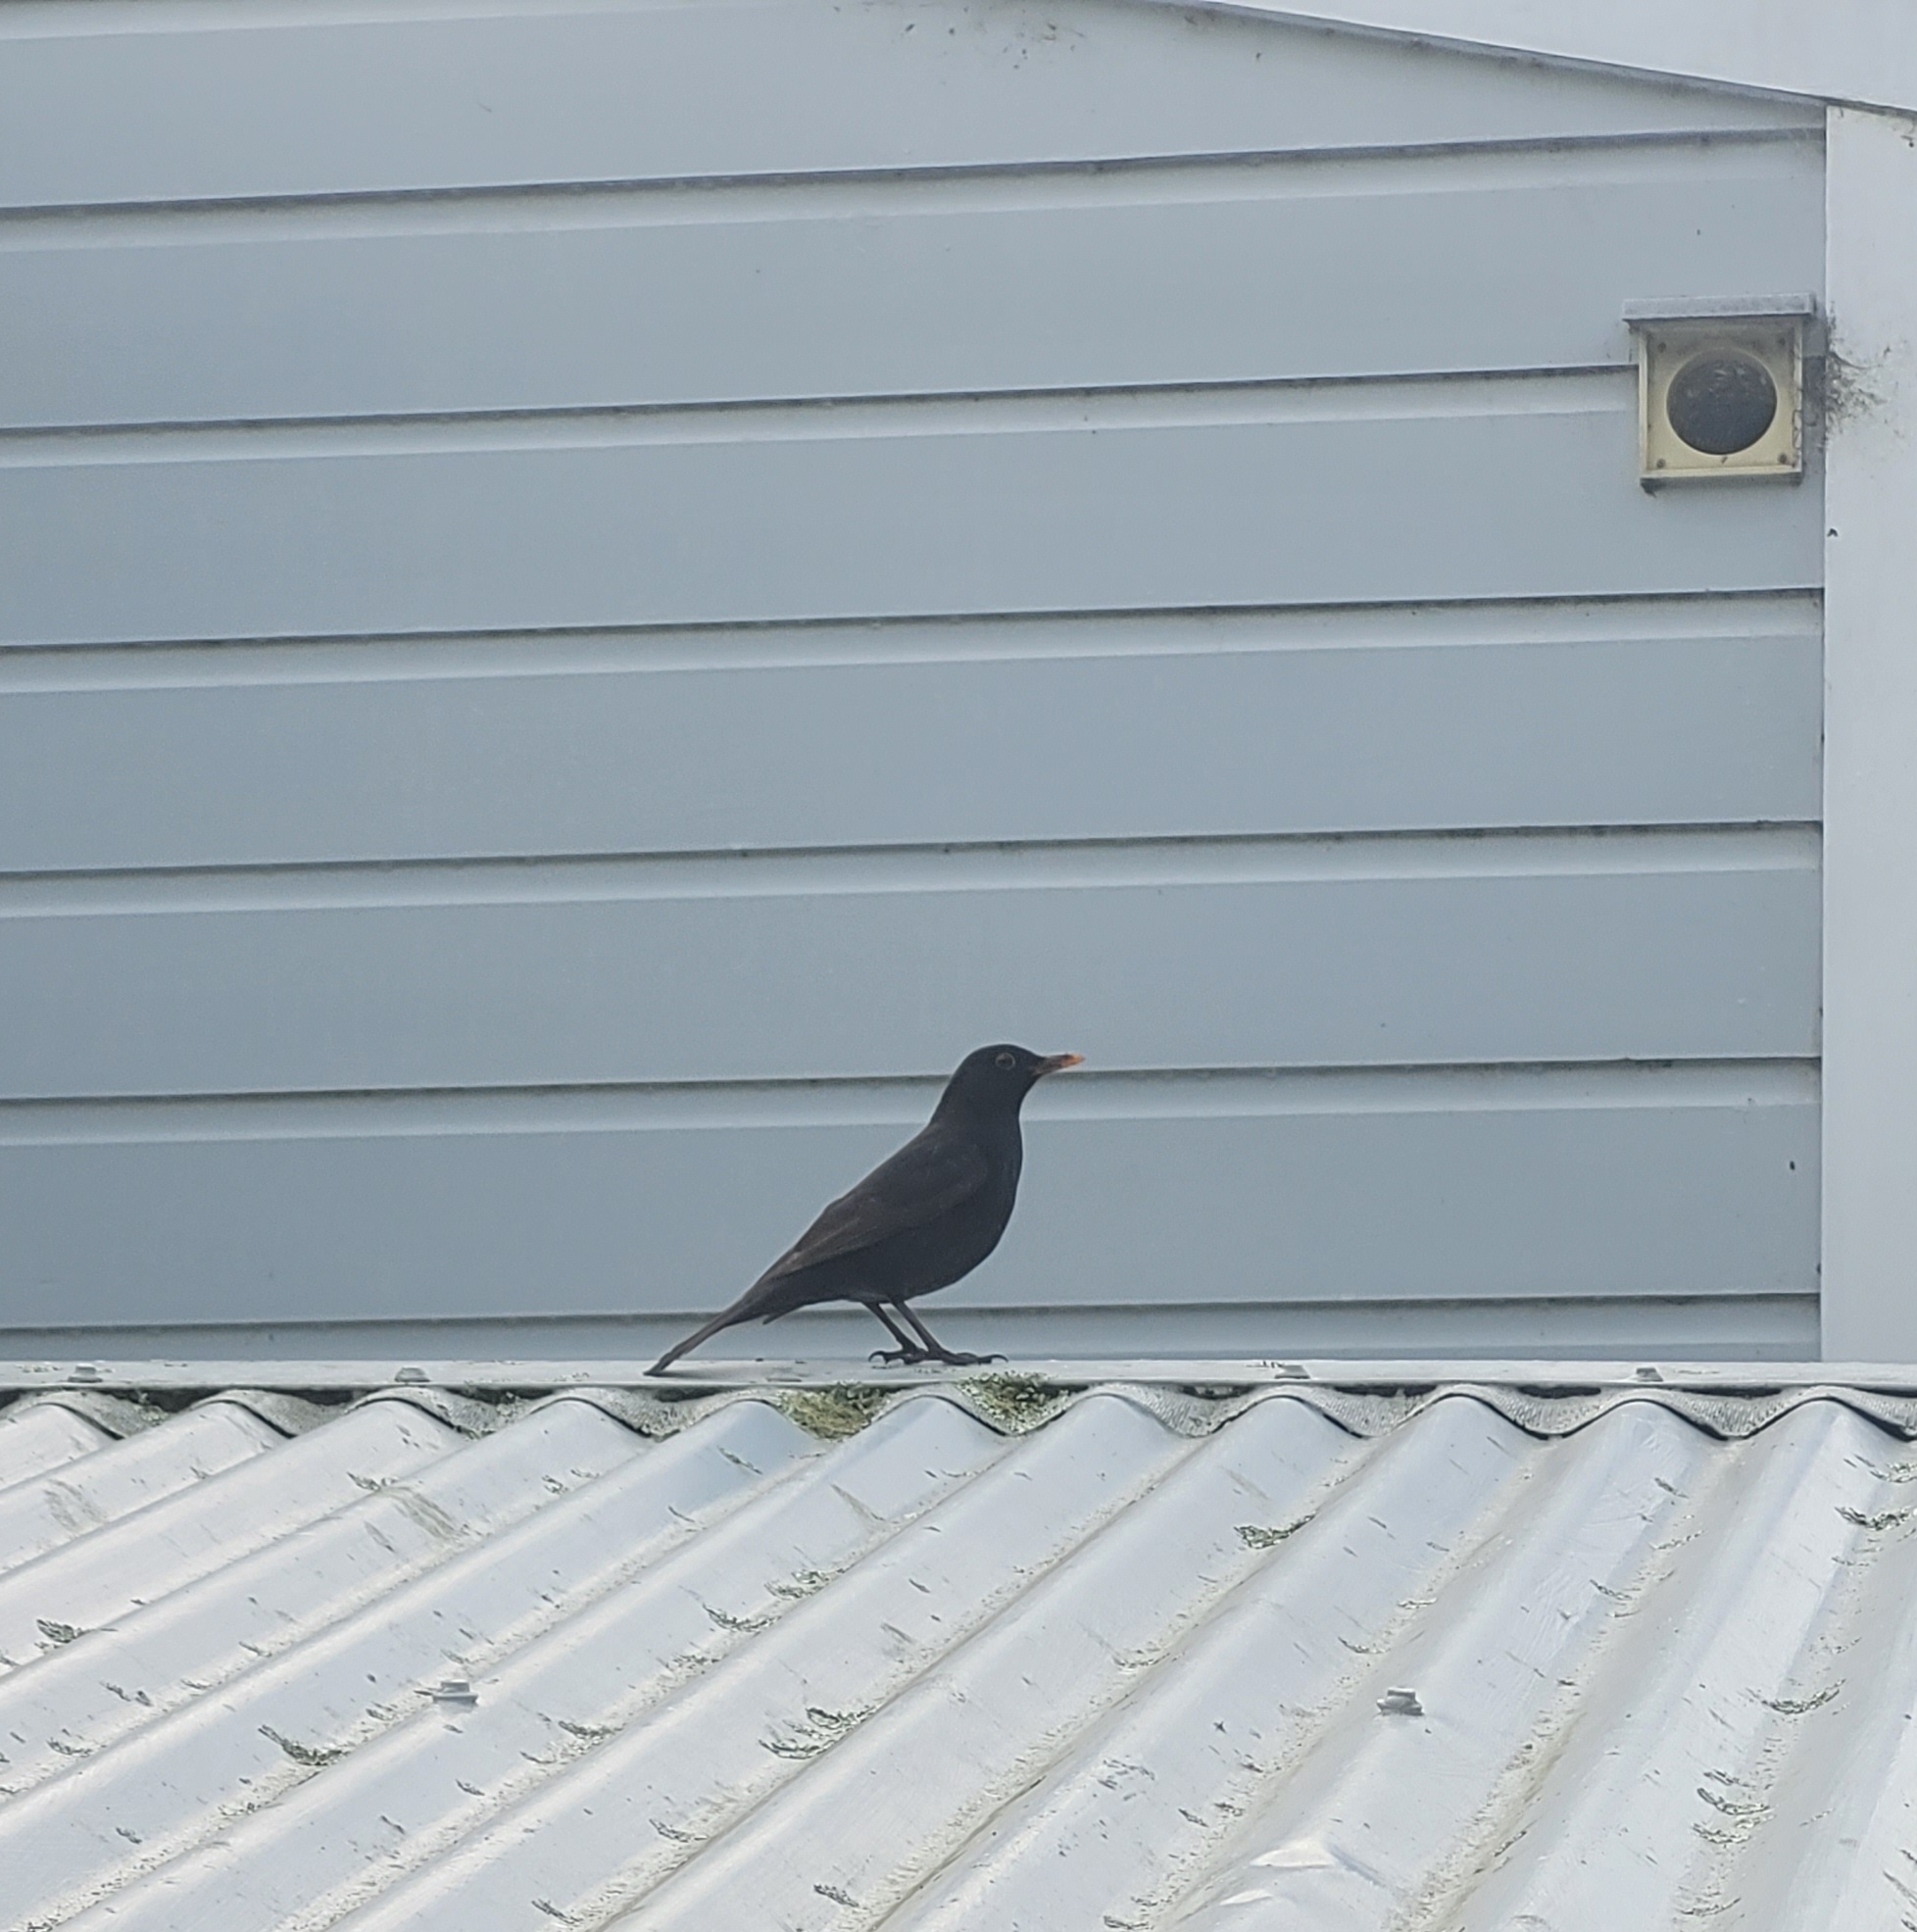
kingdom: Animalia
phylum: Chordata
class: Aves
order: Passeriformes
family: Turdidae
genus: Turdus
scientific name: Turdus merula
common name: Common blackbird
